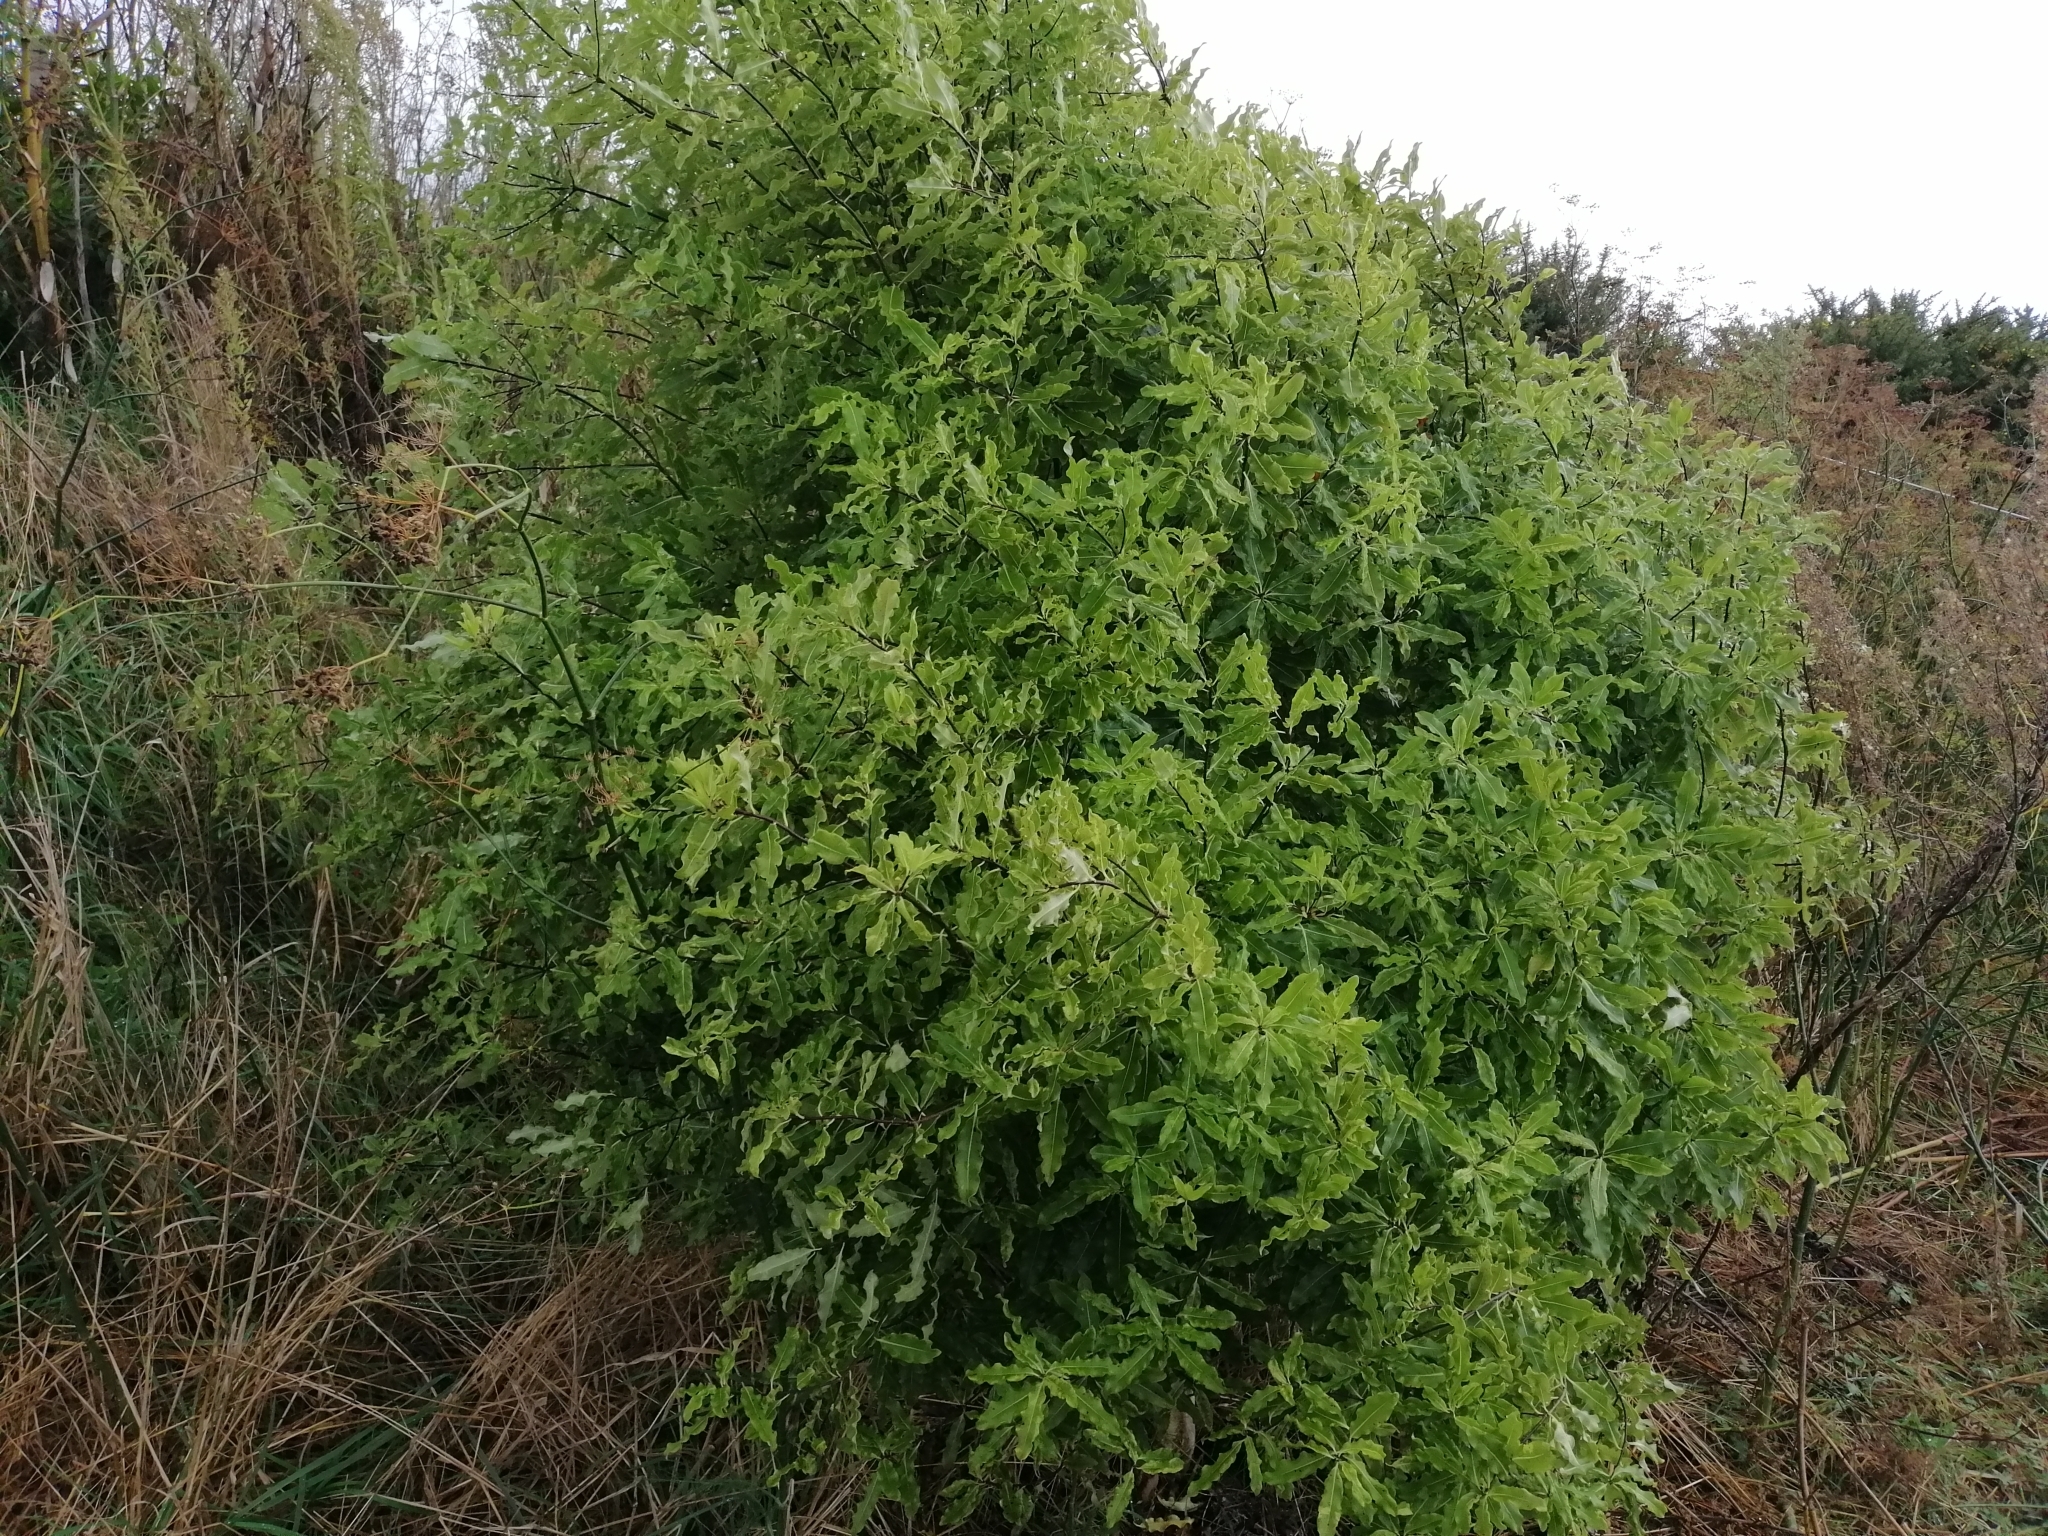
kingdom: Plantae
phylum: Tracheophyta
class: Magnoliopsida
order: Apiales
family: Pittosporaceae
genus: Pittosporum
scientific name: Pittosporum eugenioides
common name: Lemonwood
